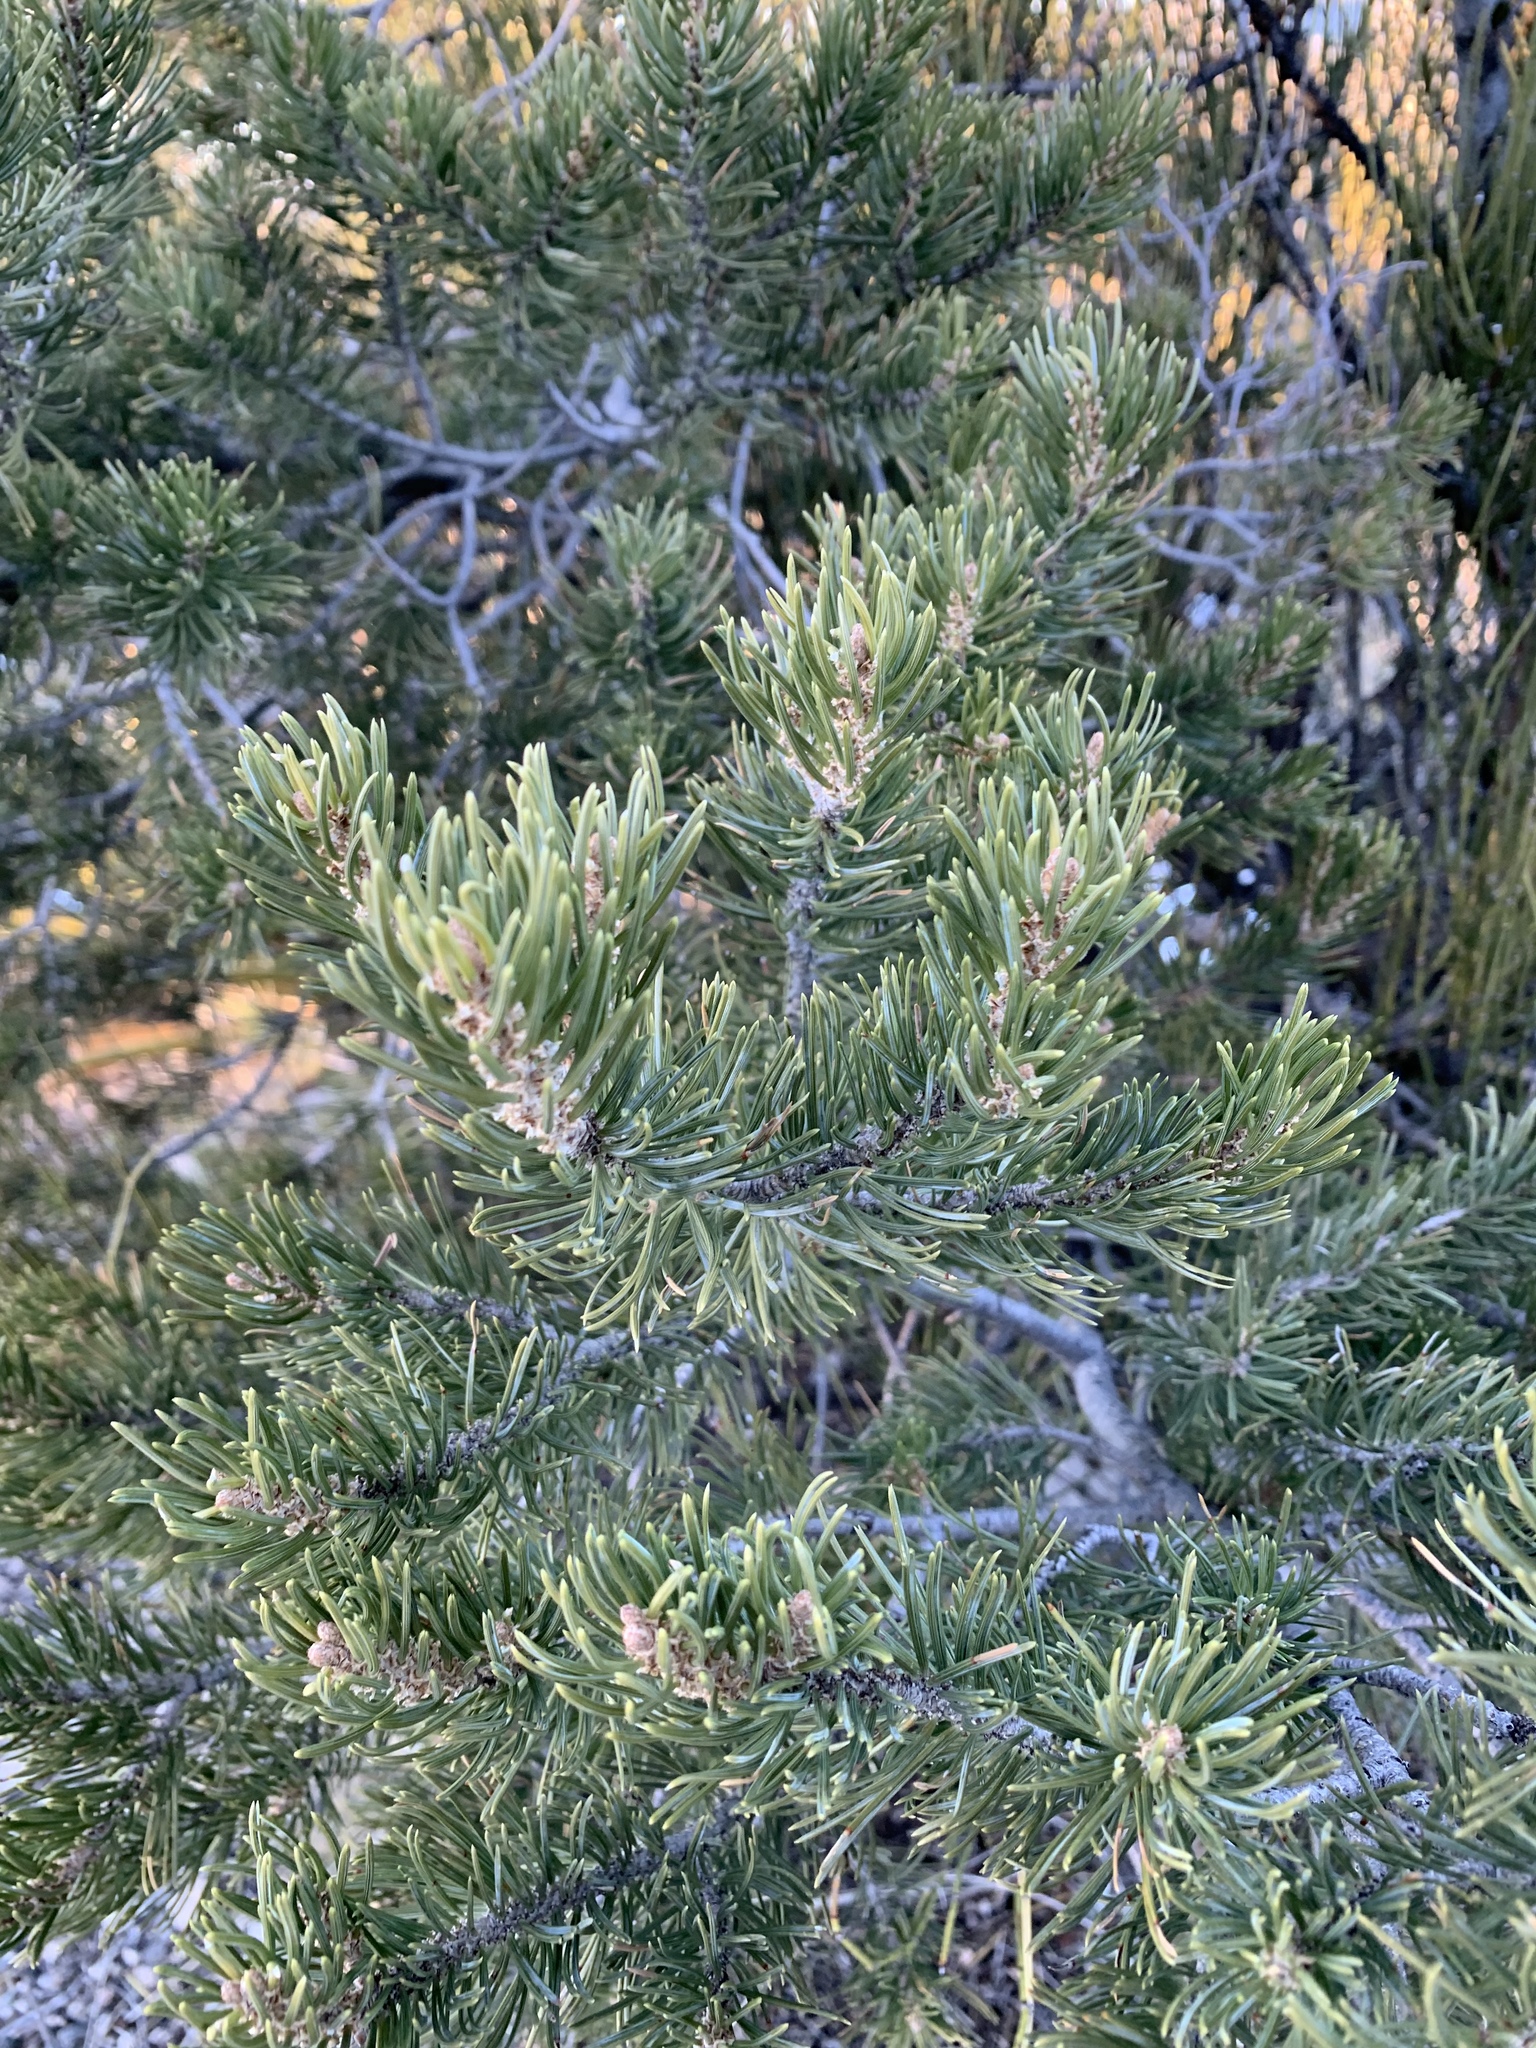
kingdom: Plantae
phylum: Tracheophyta
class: Pinopsida
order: Pinales
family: Pinaceae
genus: Pinus
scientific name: Pinus edulis
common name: Colorado pinyon
